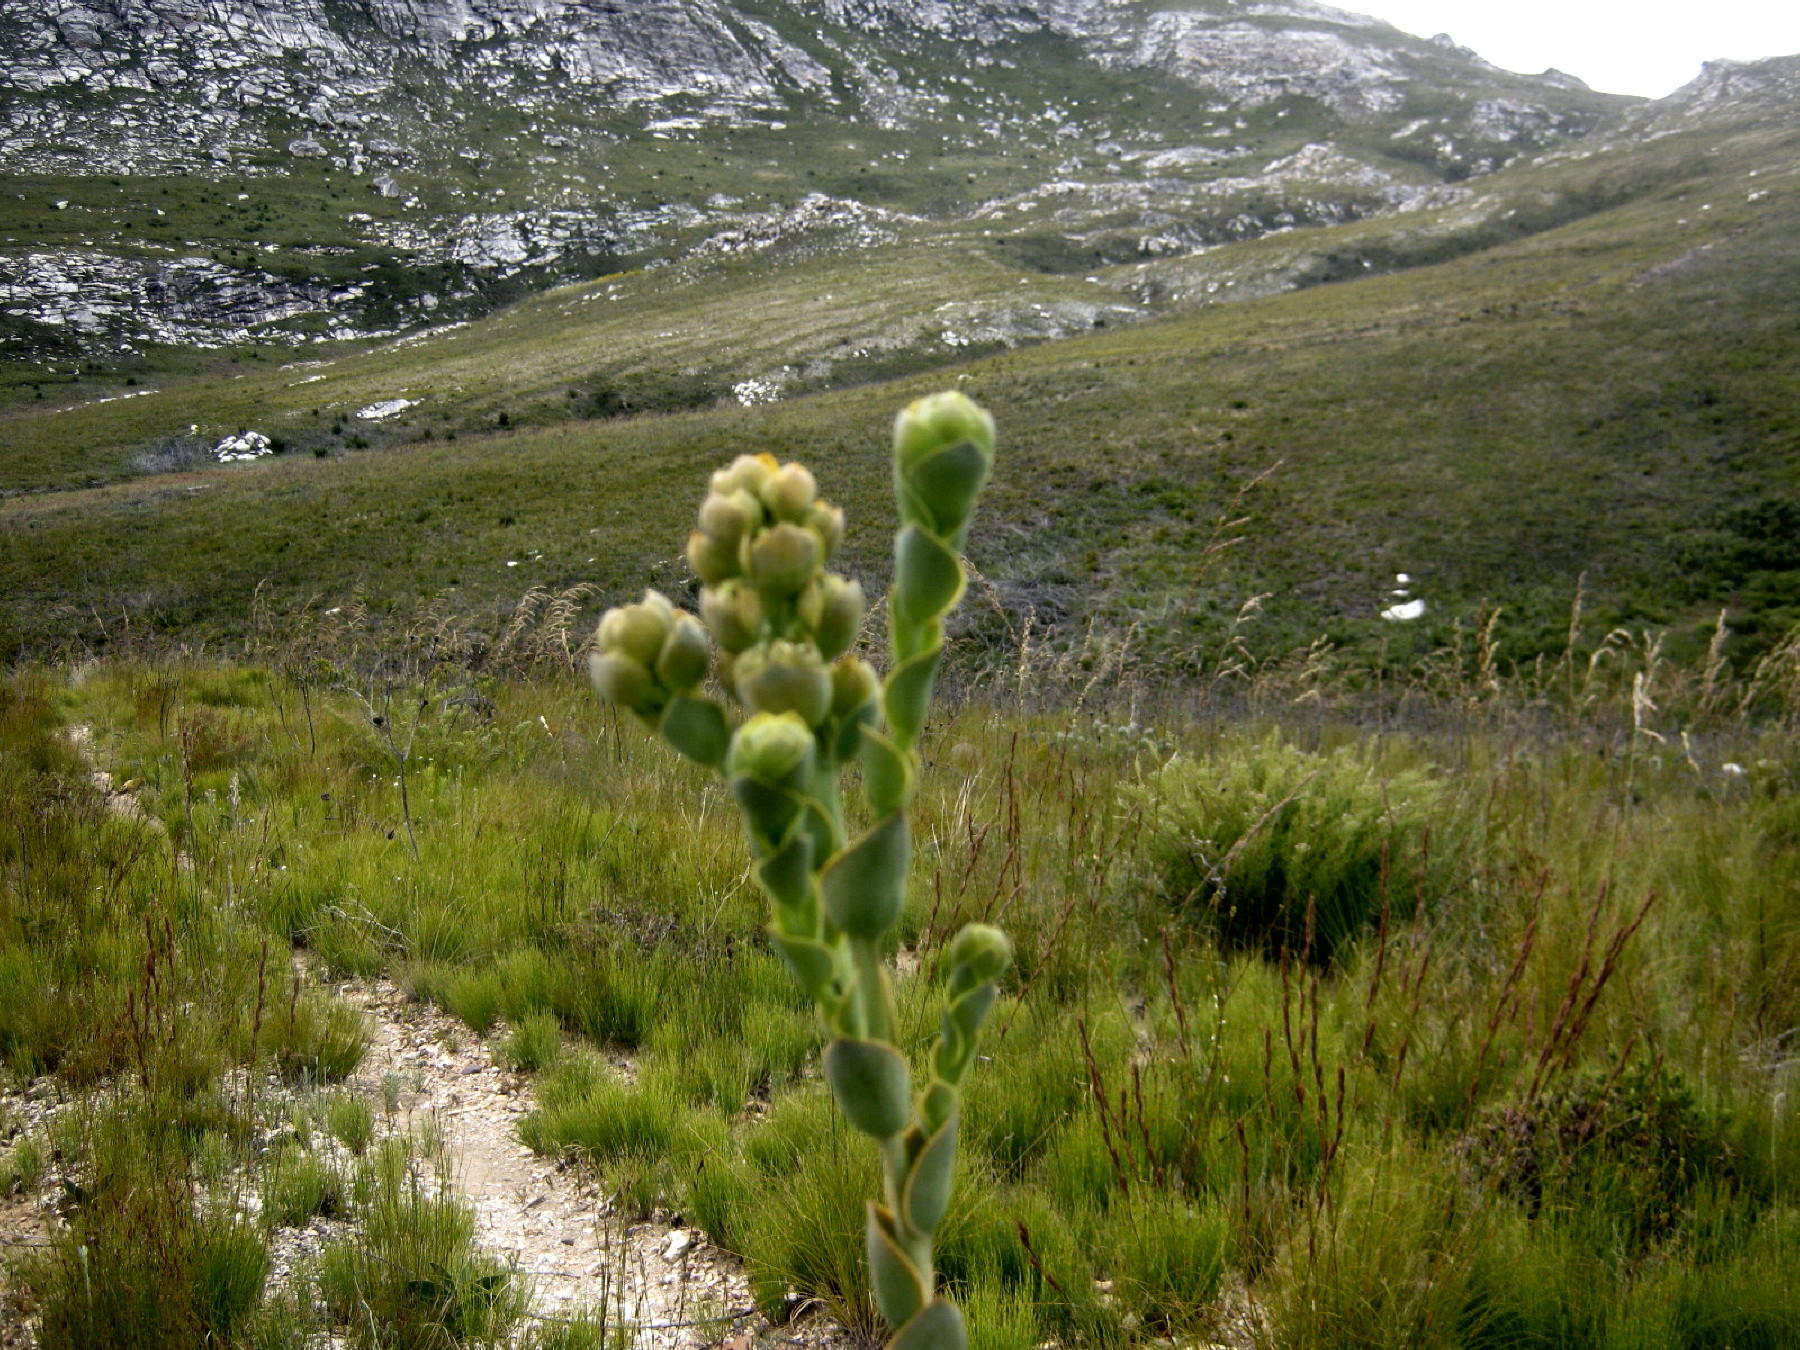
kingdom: Plantae
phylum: Tracheophyta
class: Magnoliopsida
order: Santalales
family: Thesiaceae
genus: Thesium
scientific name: Thesium euphorbioides
